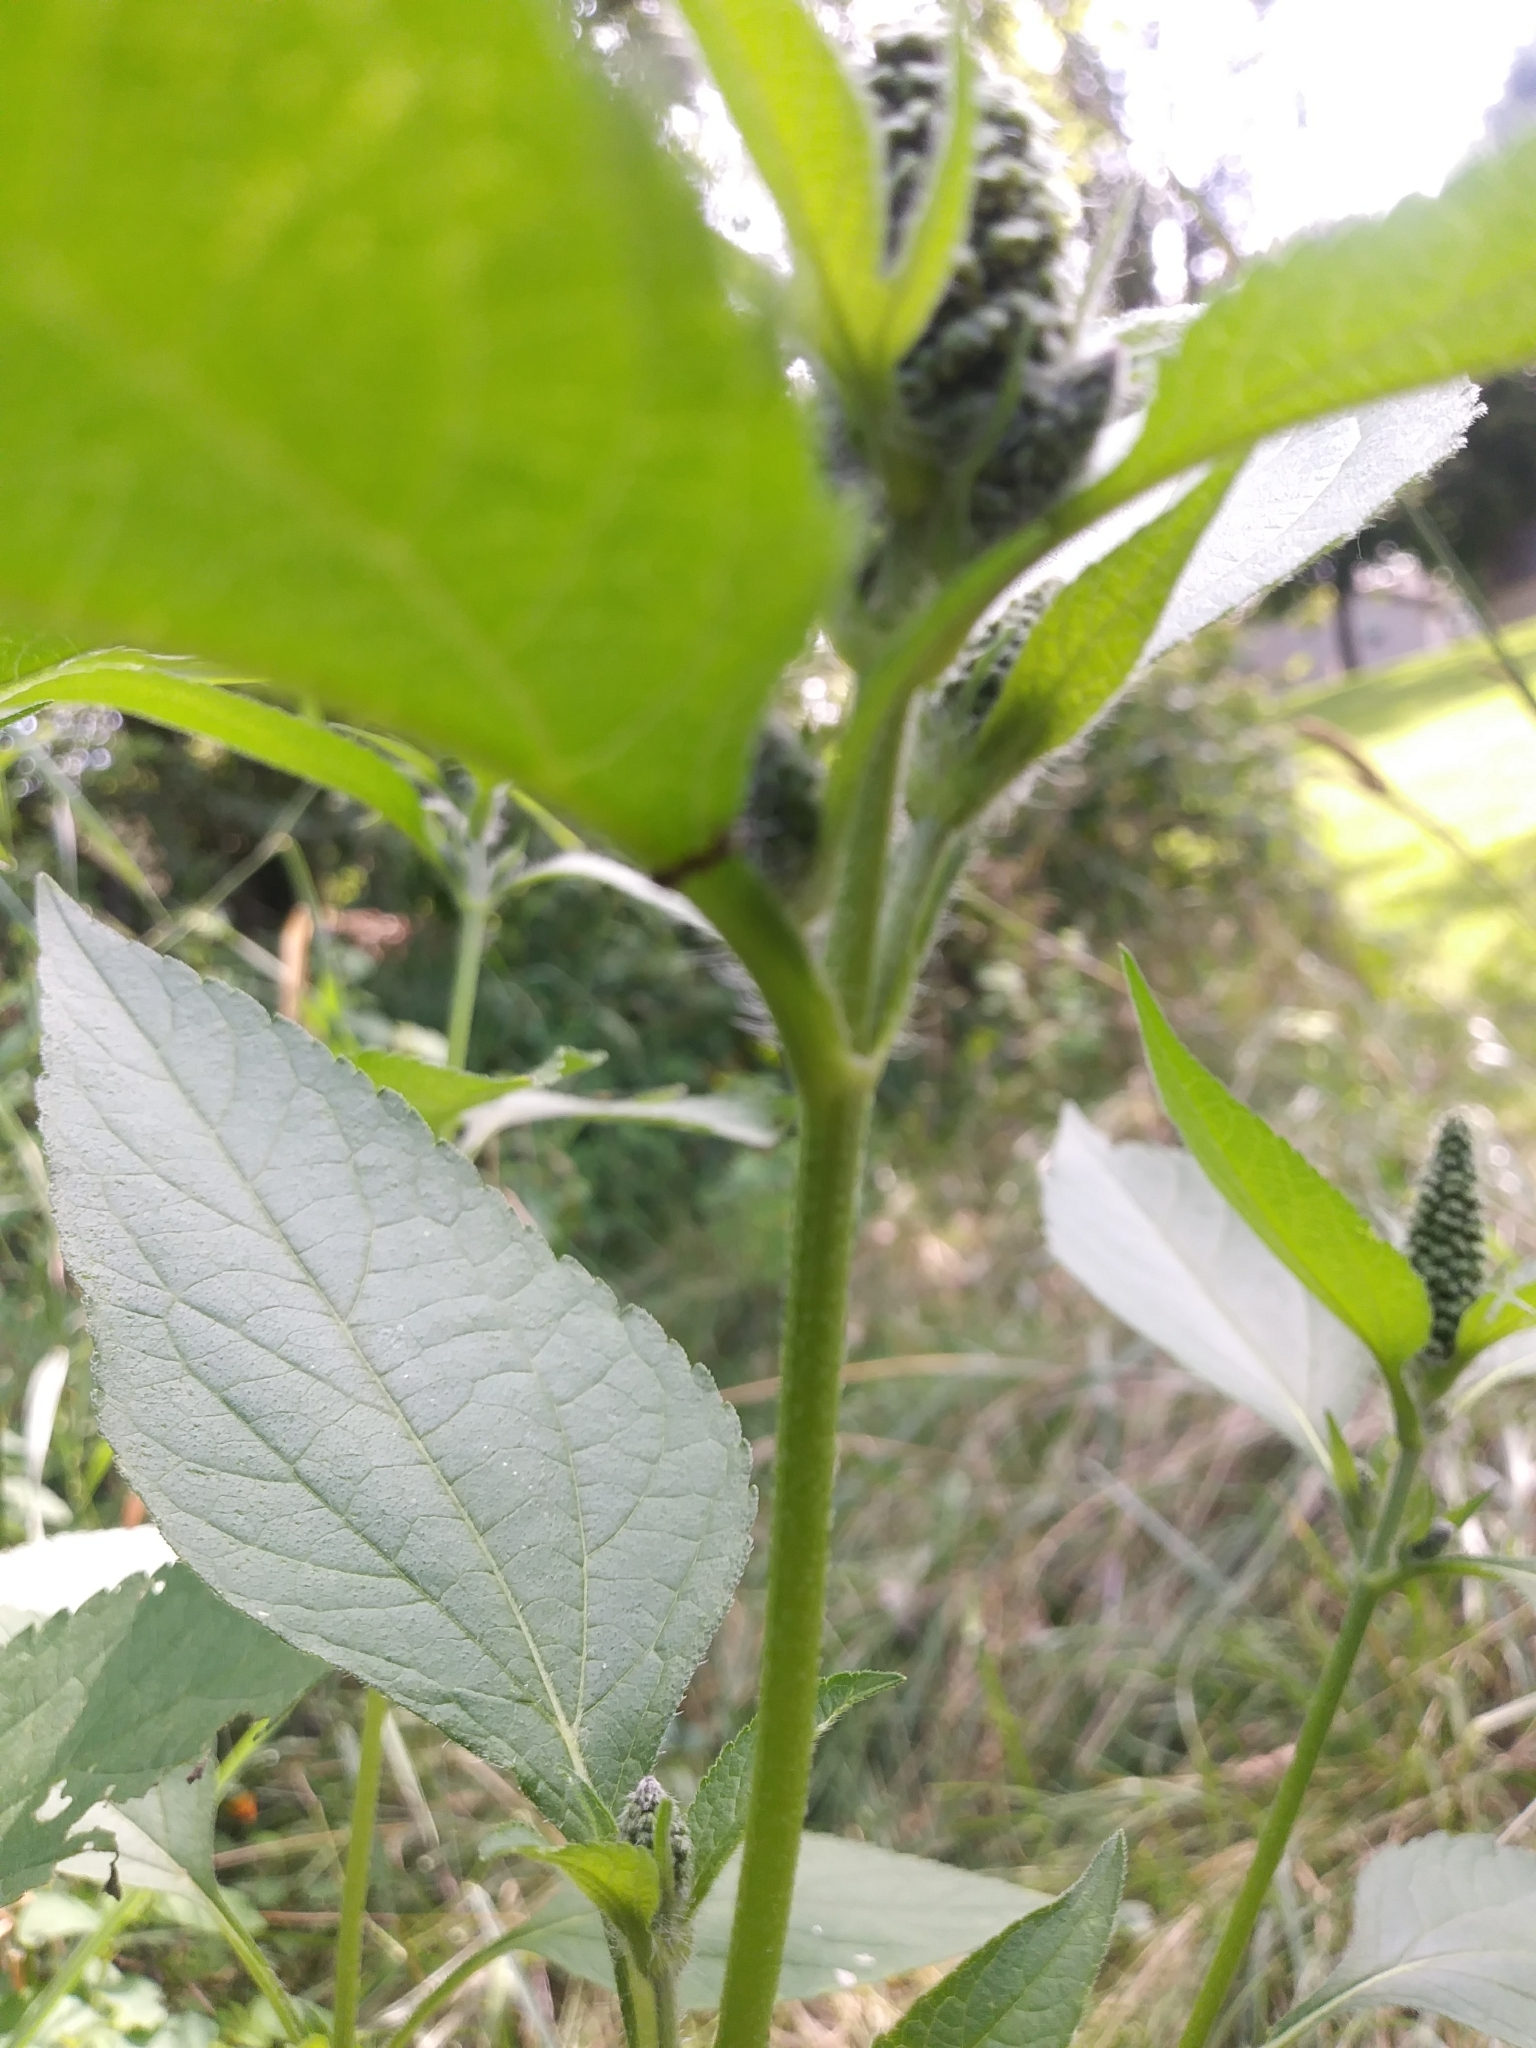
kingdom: Plantae
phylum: Tracheophyta
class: Magnoliopsida
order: Asterales
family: Asteraceae
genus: Ambrosia
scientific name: Ambrosia trifida
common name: Giant ragweed
